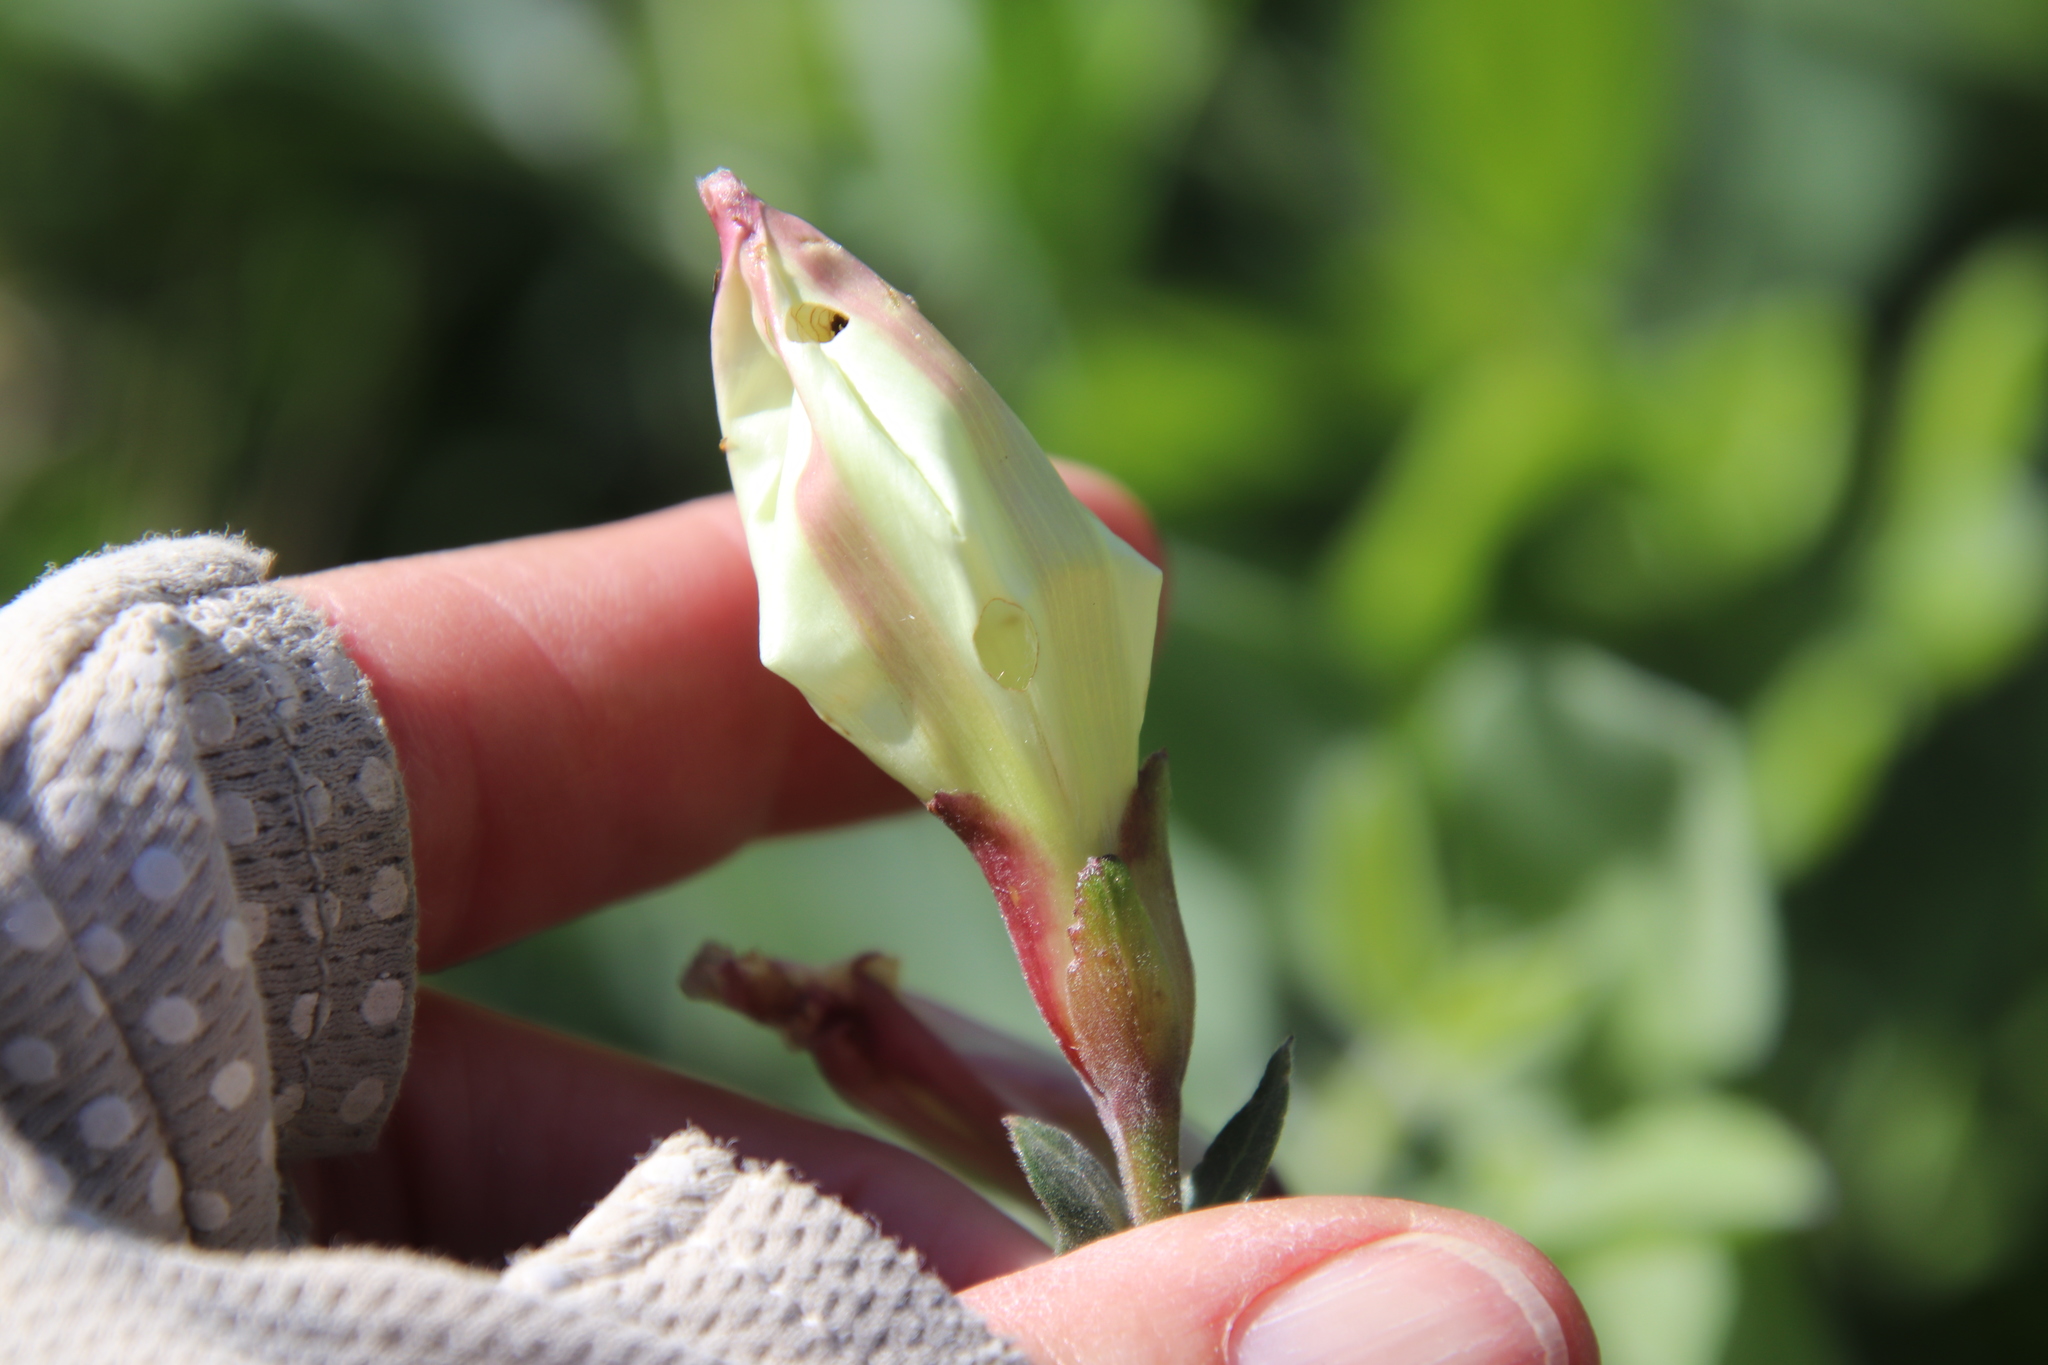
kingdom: Plantae
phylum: Tracheophyta
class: Magnoliopsida
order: Solanales
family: Convolvulaceae
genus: Calystegia
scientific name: Calystegia occidentalis
